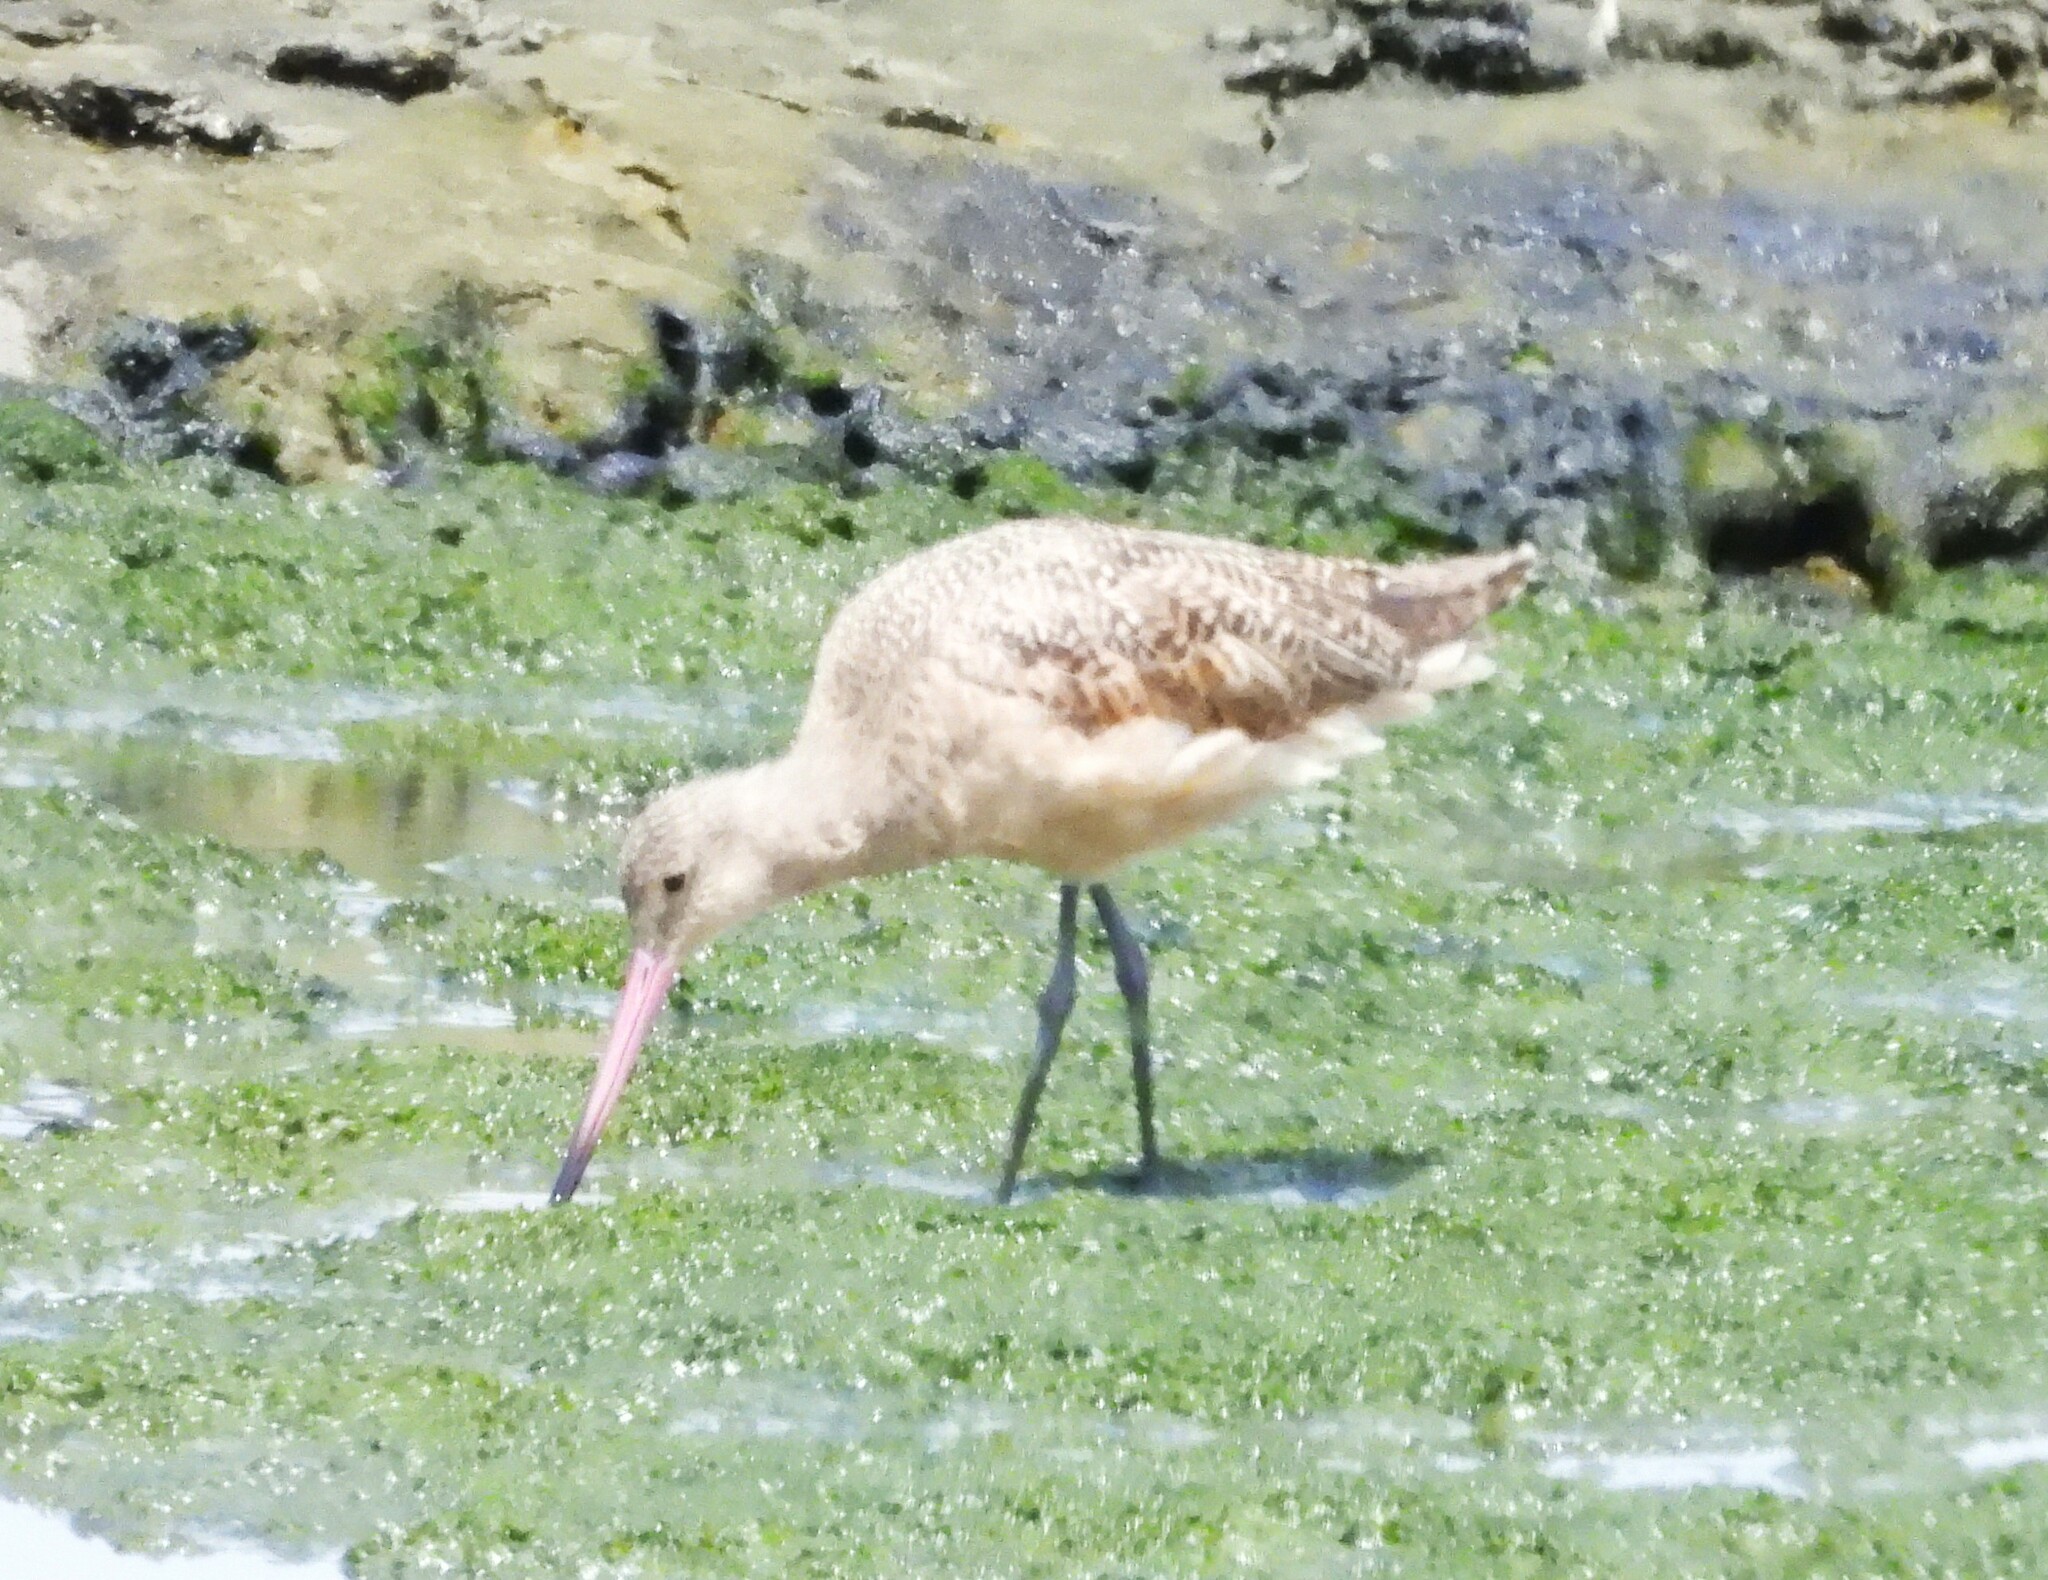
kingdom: Animalia
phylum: Chordata
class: Aves
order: Charadriiformes
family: Scolopacidae
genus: Limosa
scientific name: Limosa fedoa
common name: Marbled godwit
